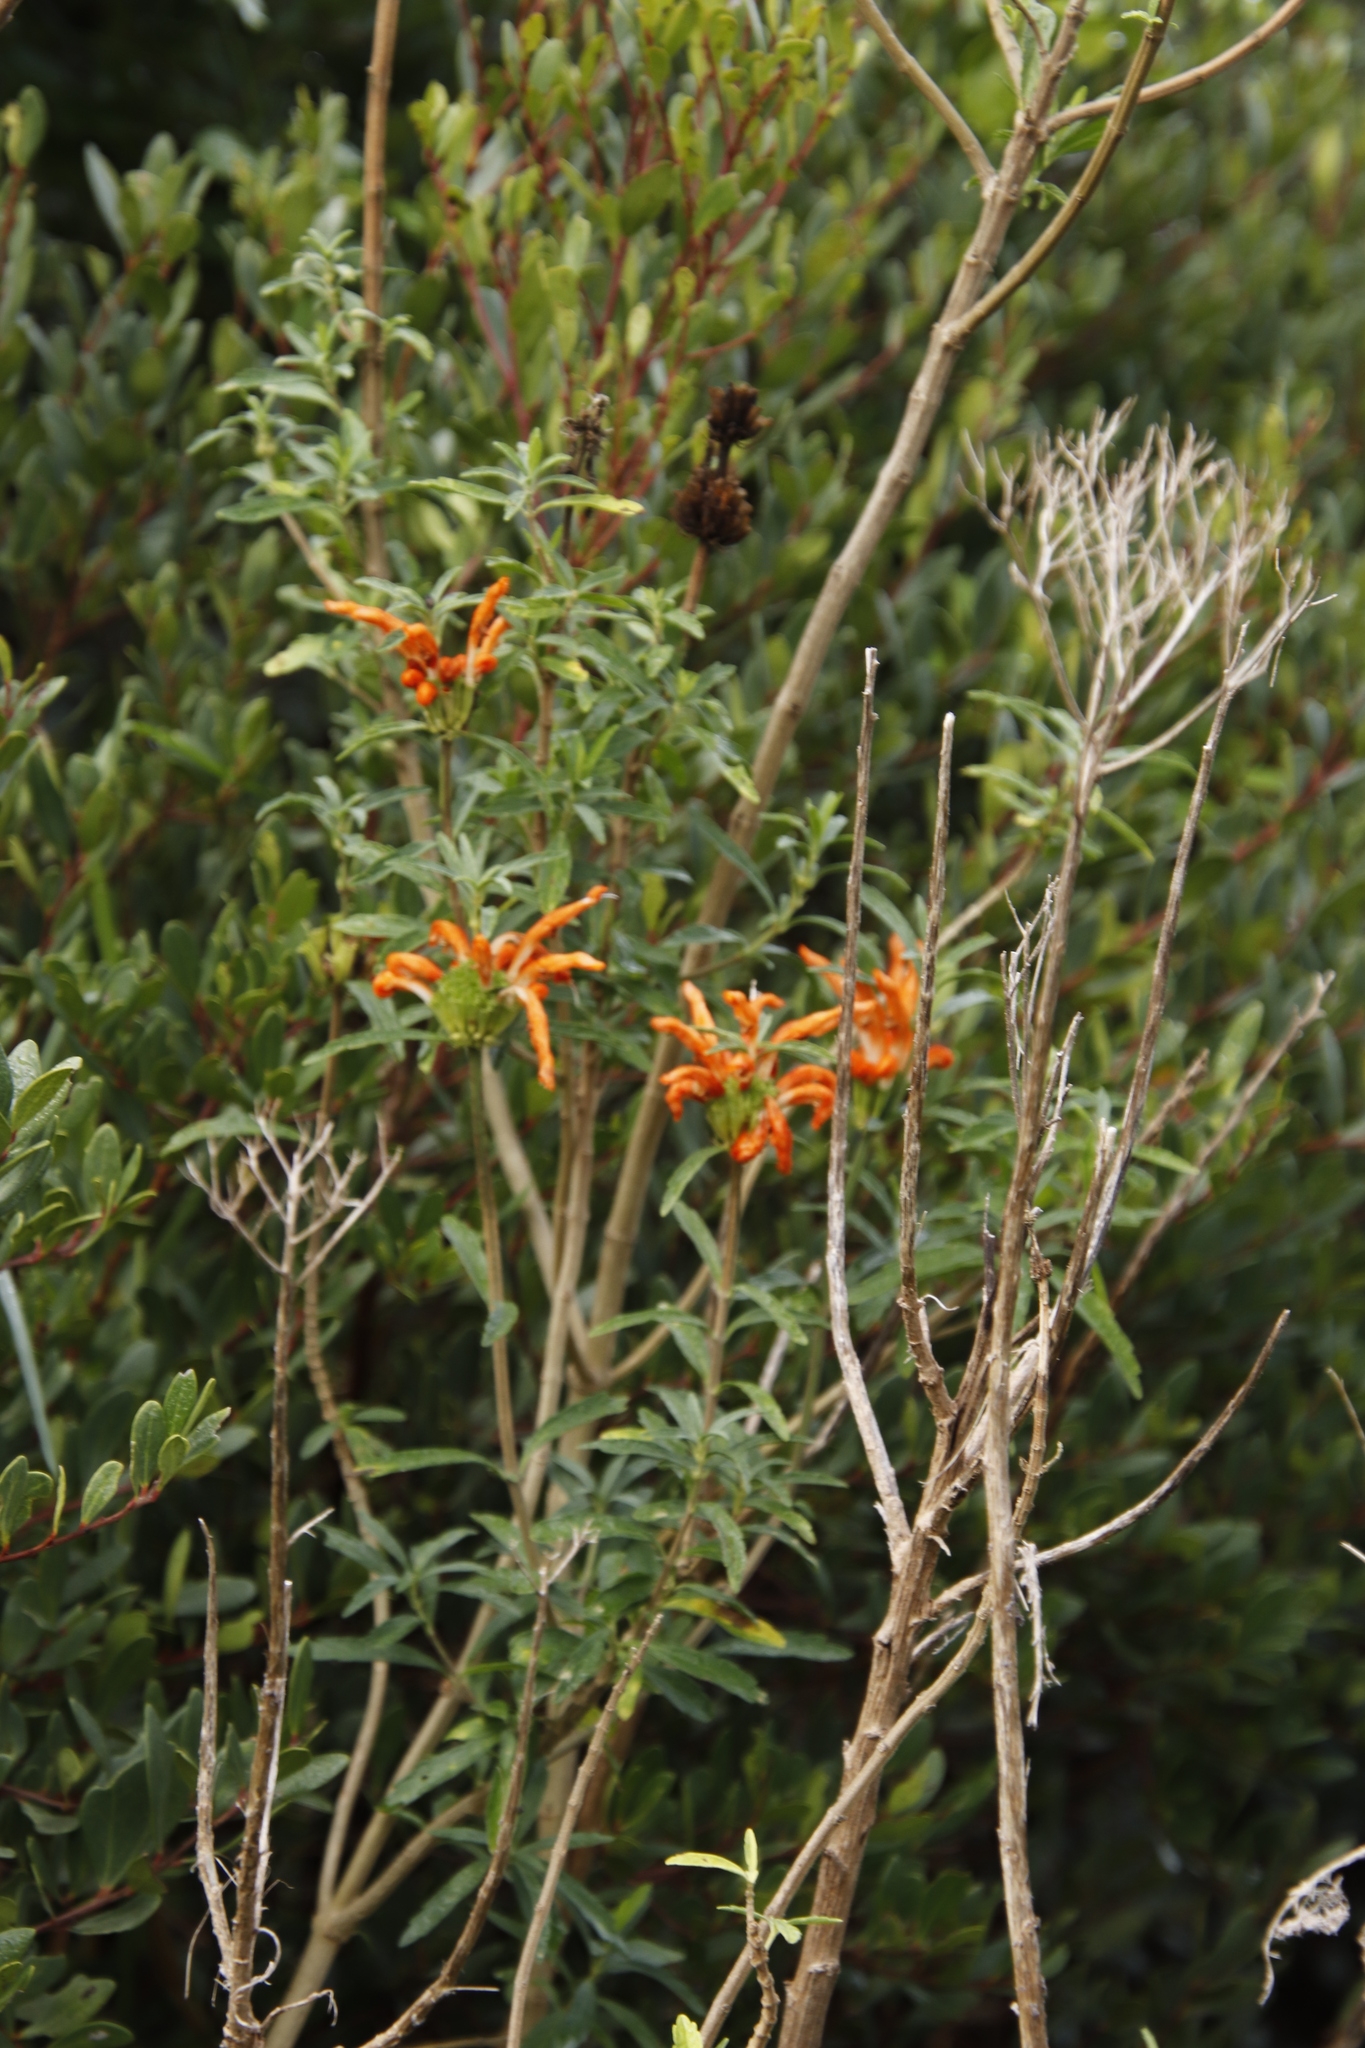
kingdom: Plantae
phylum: Tracheophyta
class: Magnoliopsida
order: Lamiales
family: Lamiaceae
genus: Leonotis
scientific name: Leonotis leonurus
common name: Lion's ear
